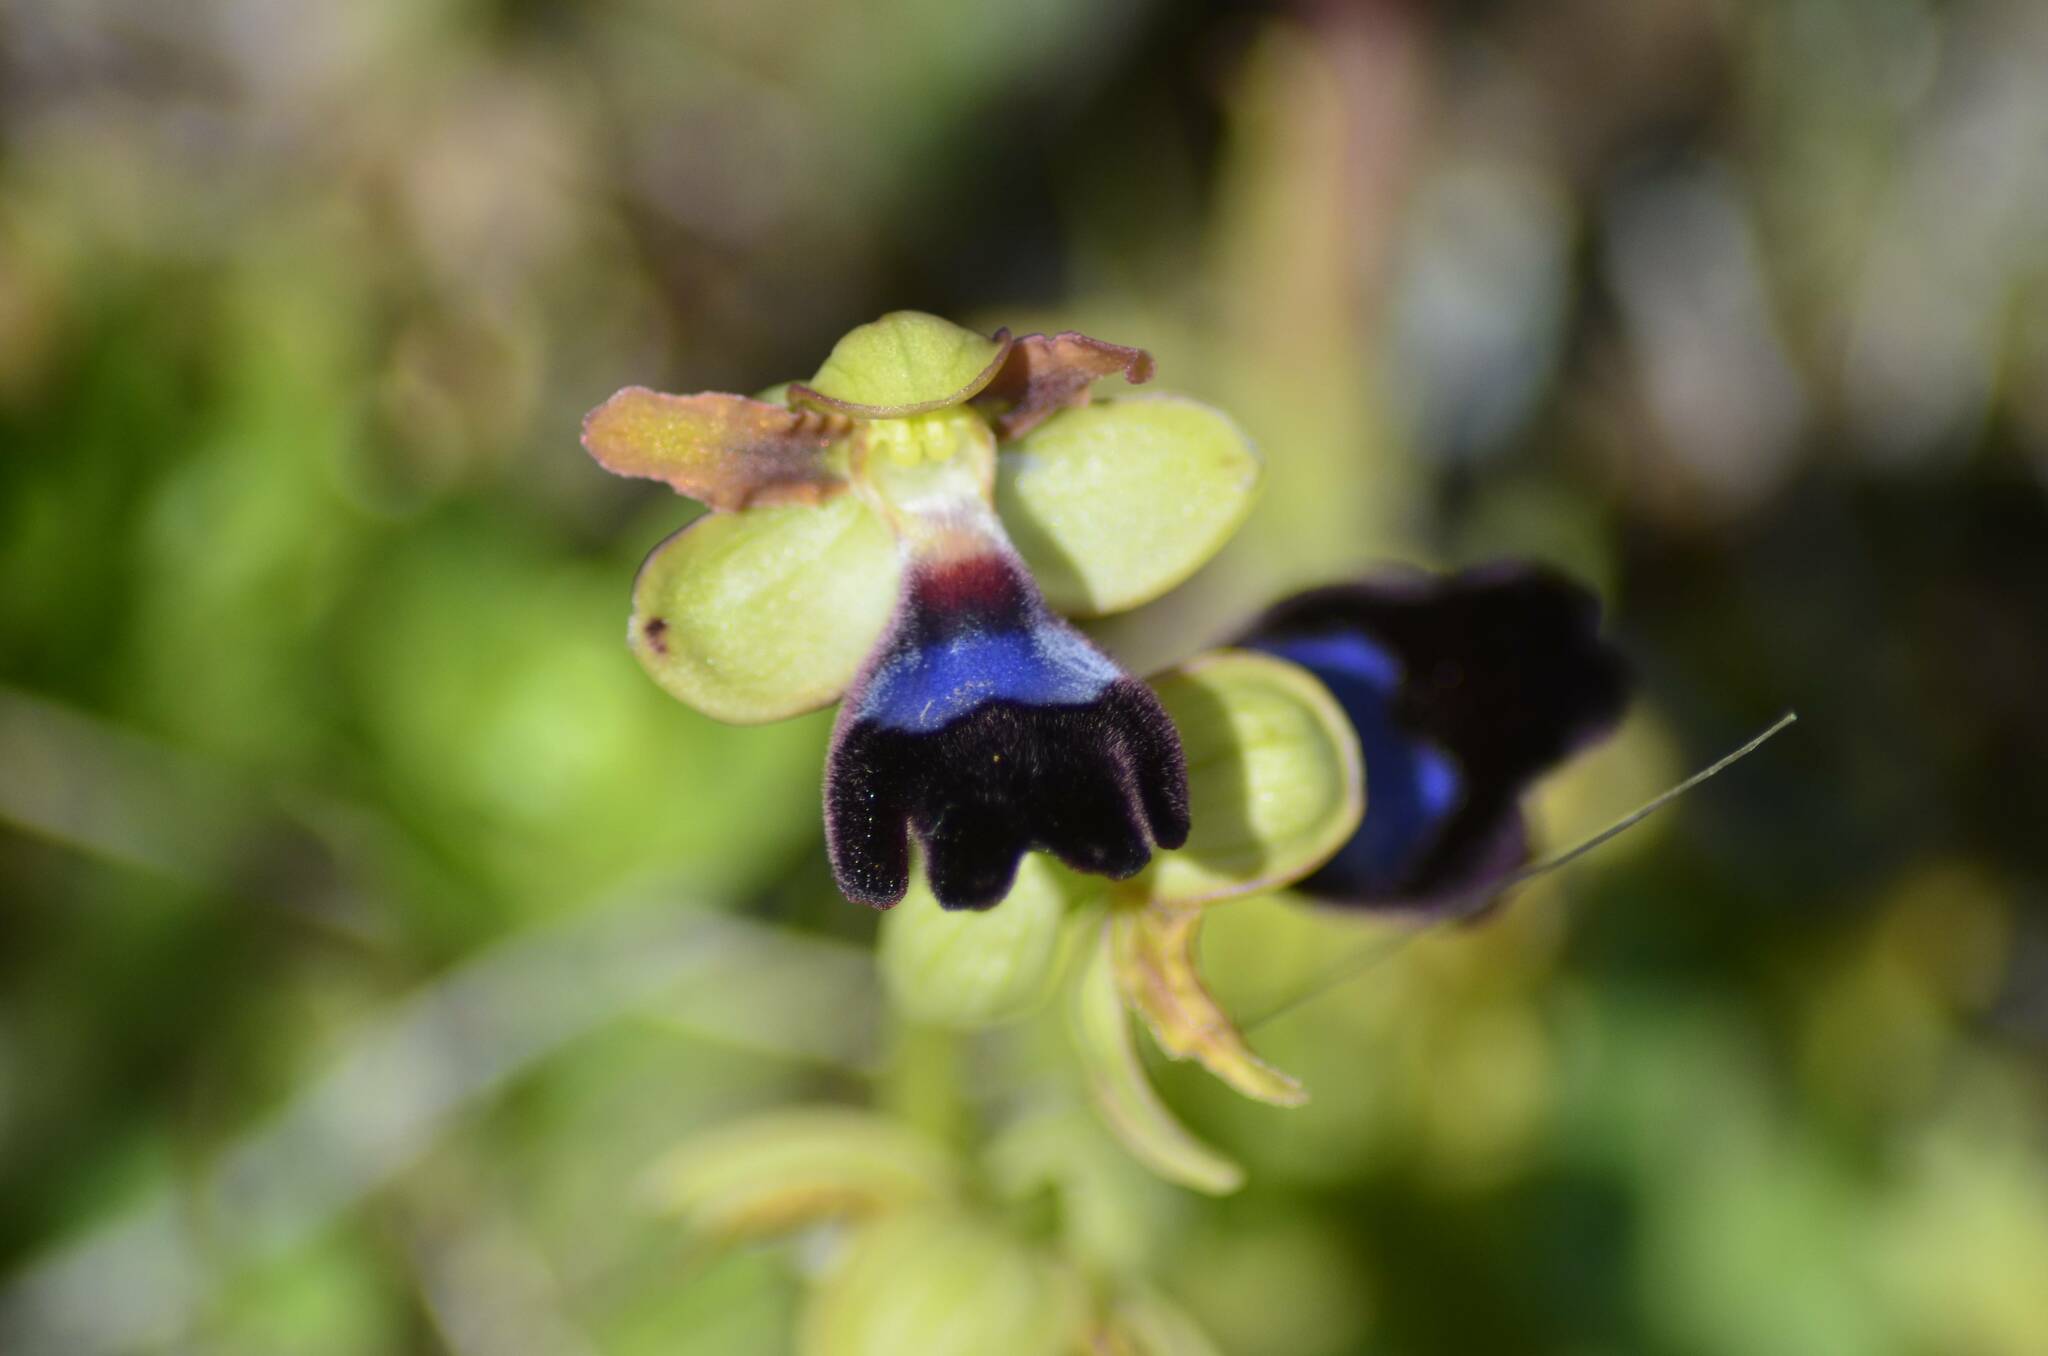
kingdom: Plantae
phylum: Tracheophyta
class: Liliopsida
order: Asparagales
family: Orchidaceae
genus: Ophrys
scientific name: Ophrys atlantica
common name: Atlantic ophrys
